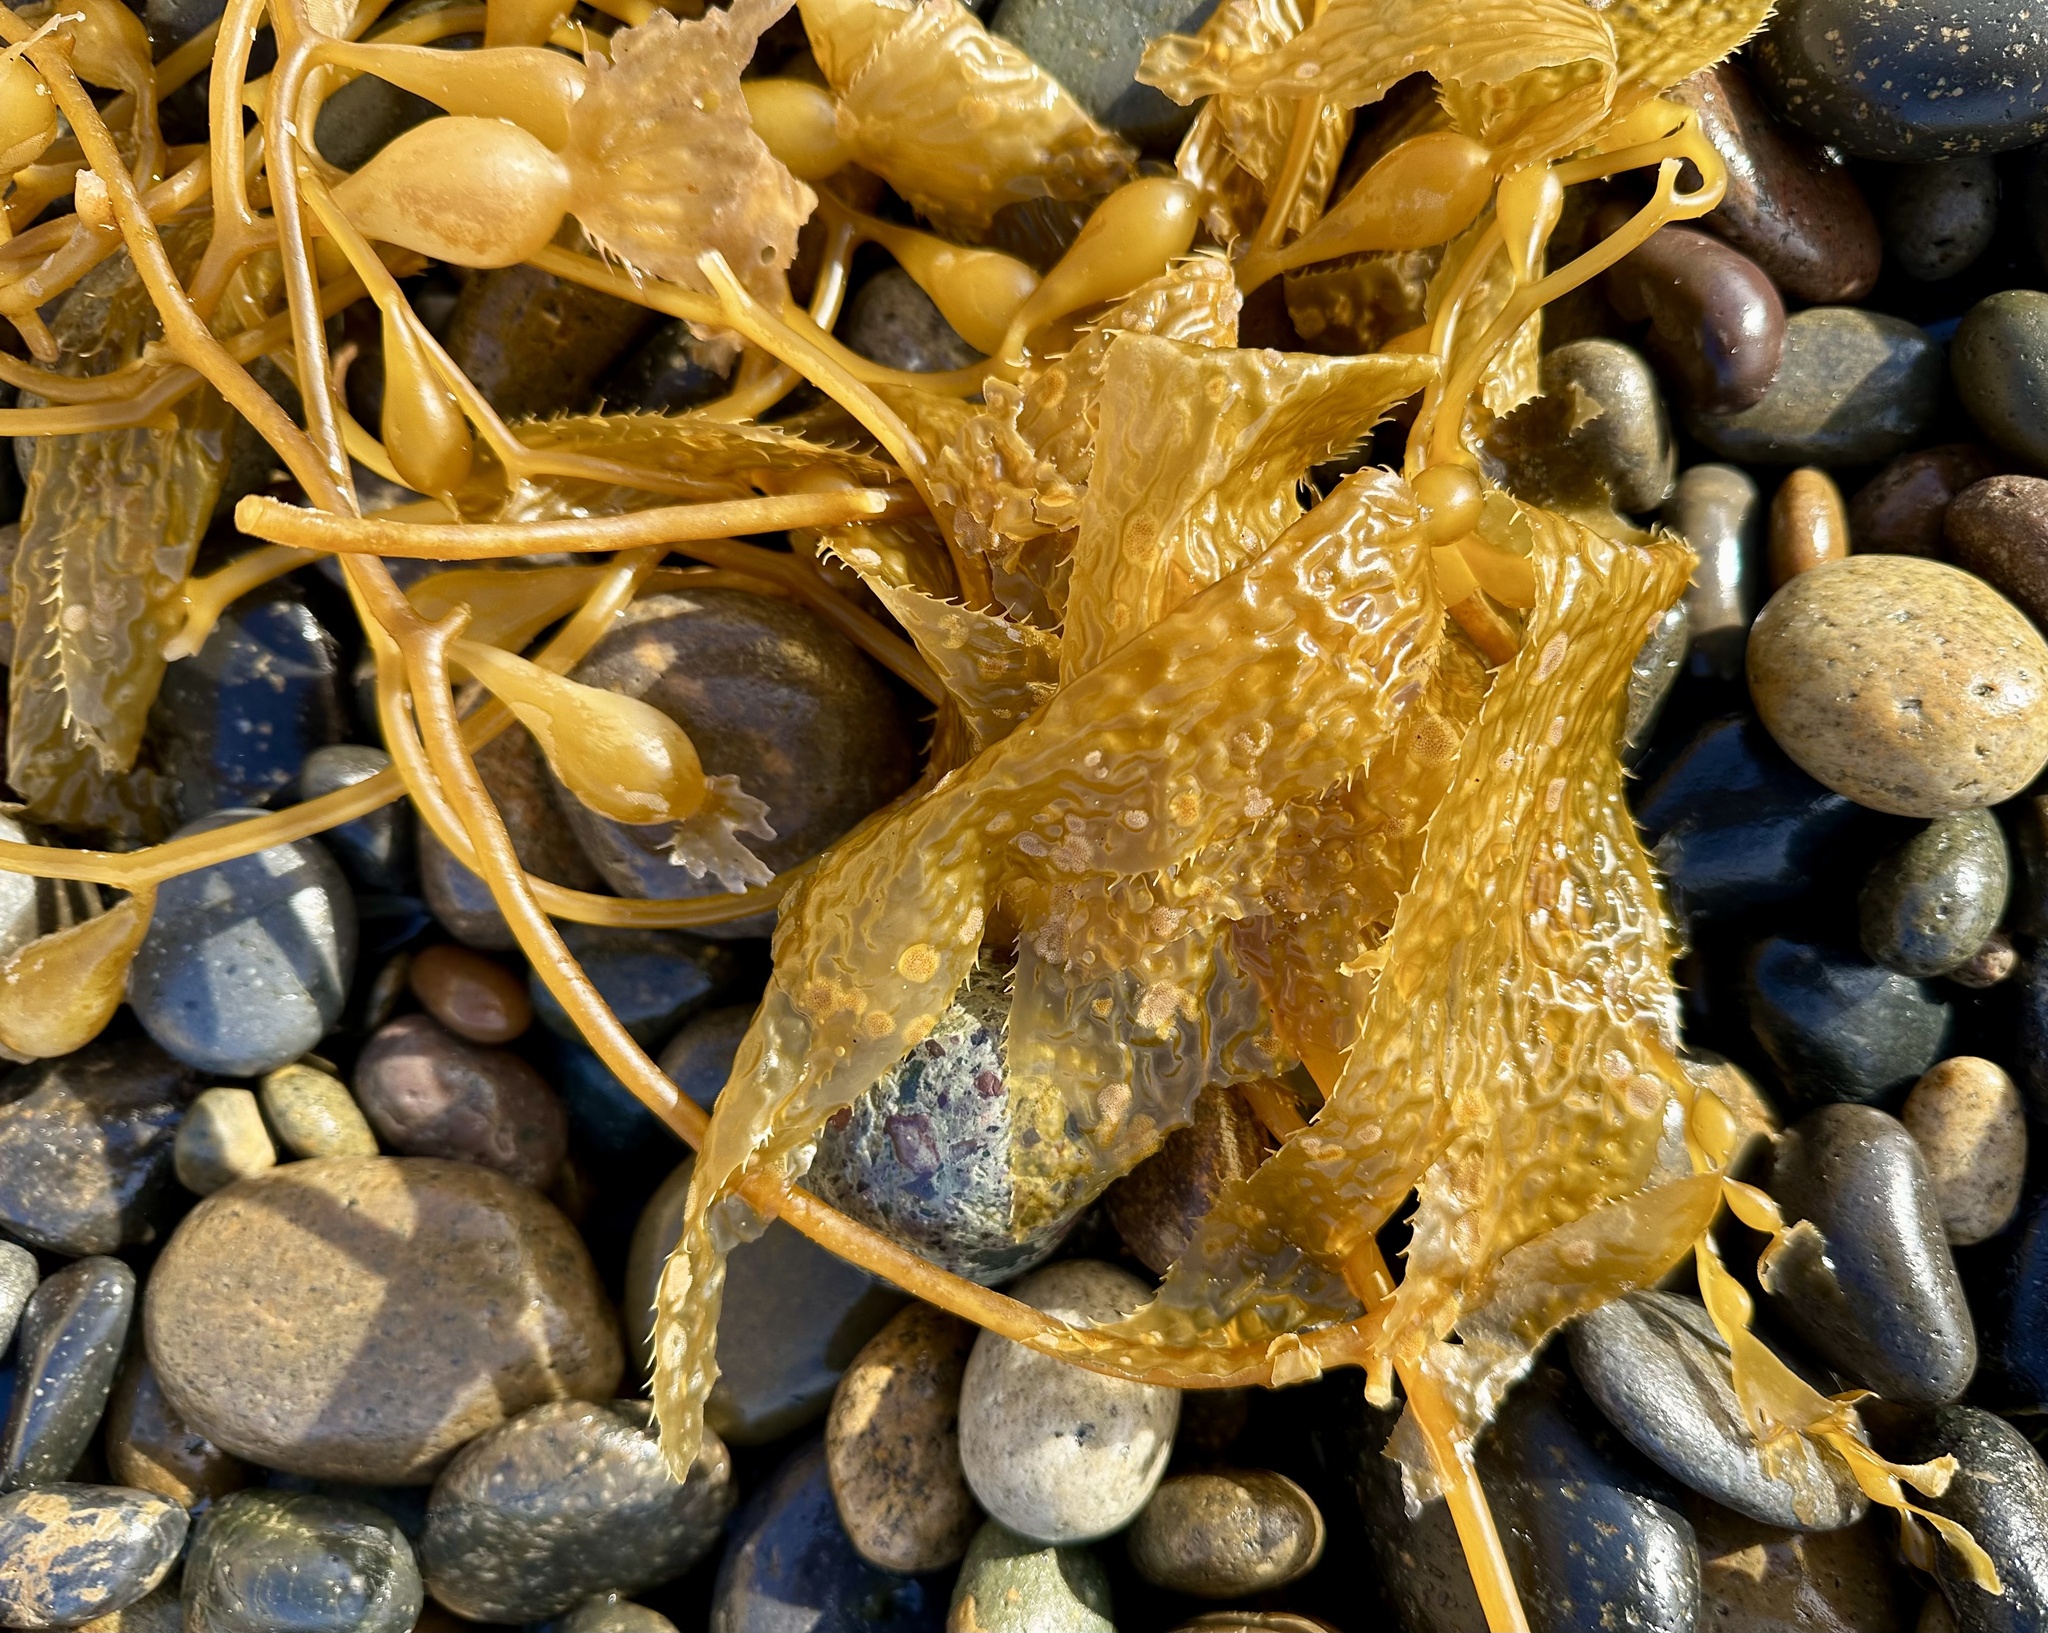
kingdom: Chromista
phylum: Ochrophyta
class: Phaeophyceae
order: Laminariales
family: Laminariaceae
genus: Macrocystis
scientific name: Macrocystis pyrifera
